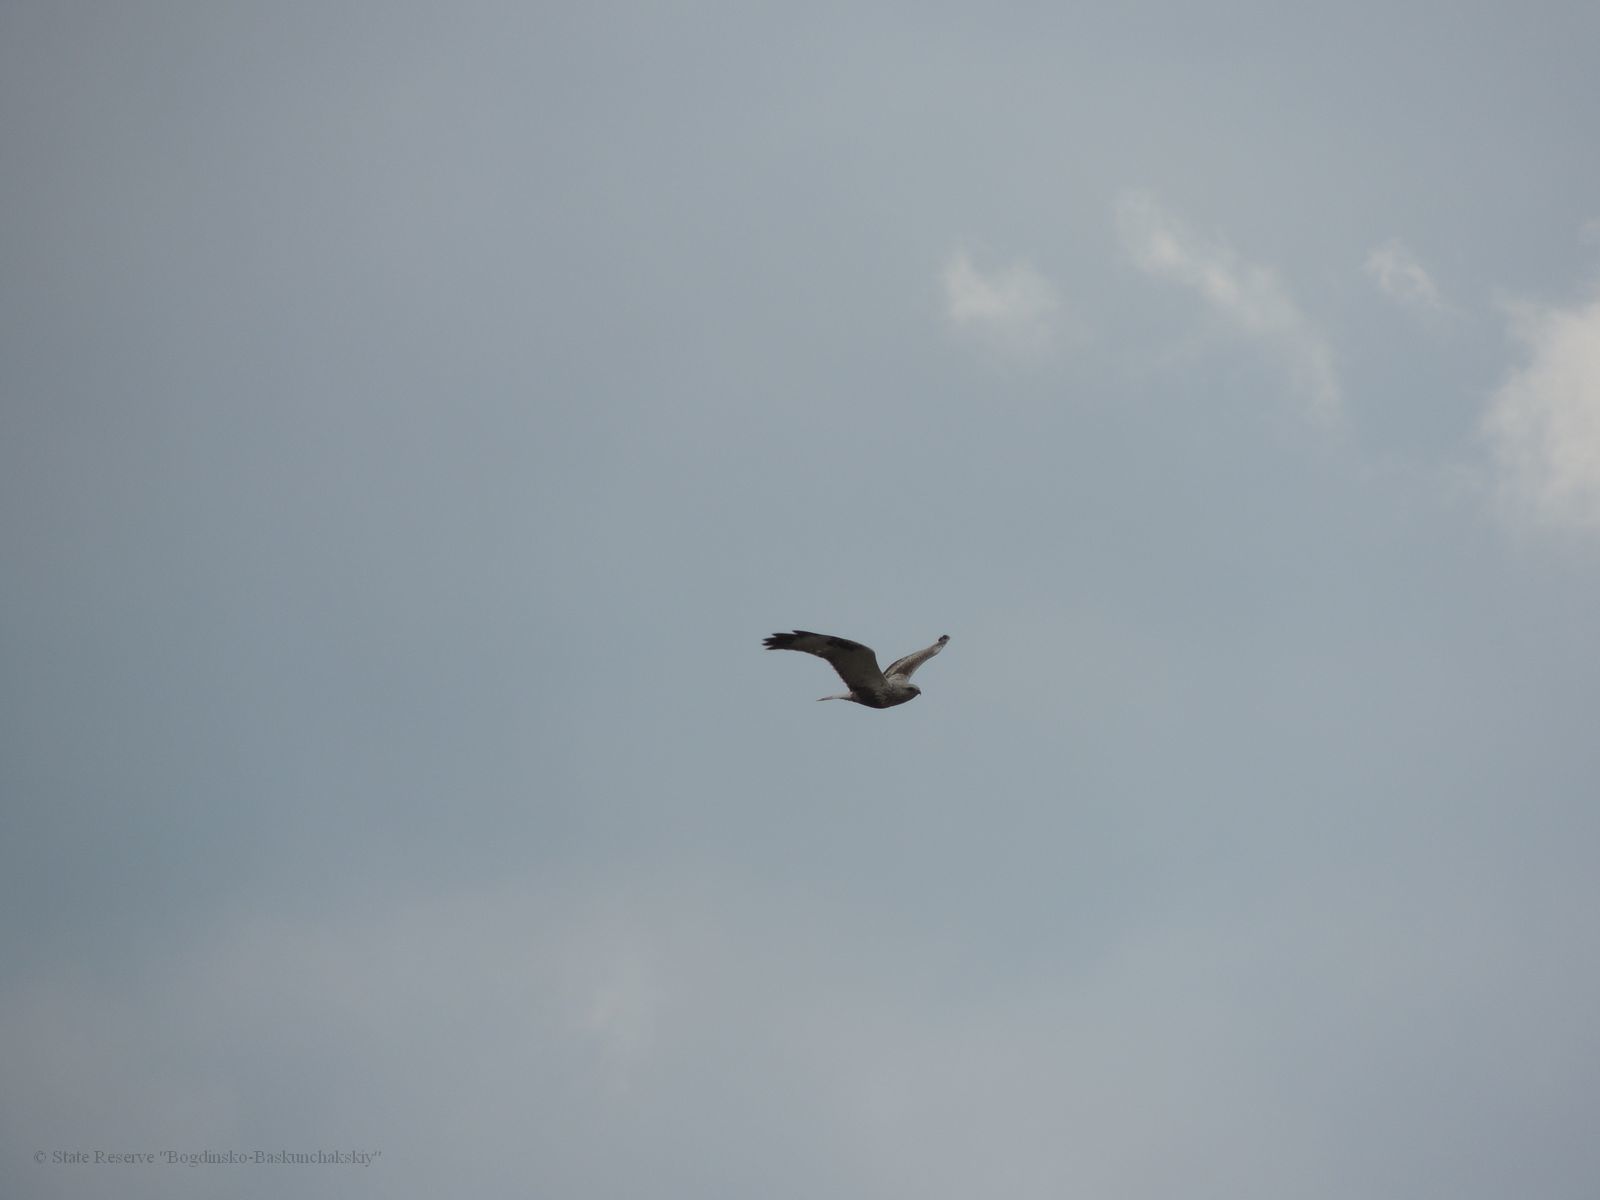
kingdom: Animalia
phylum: Chordata
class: Aves
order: Accipitriformes
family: Accipitridae
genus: Buteo
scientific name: Buteo lagopus
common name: Rough-legged buzzard
